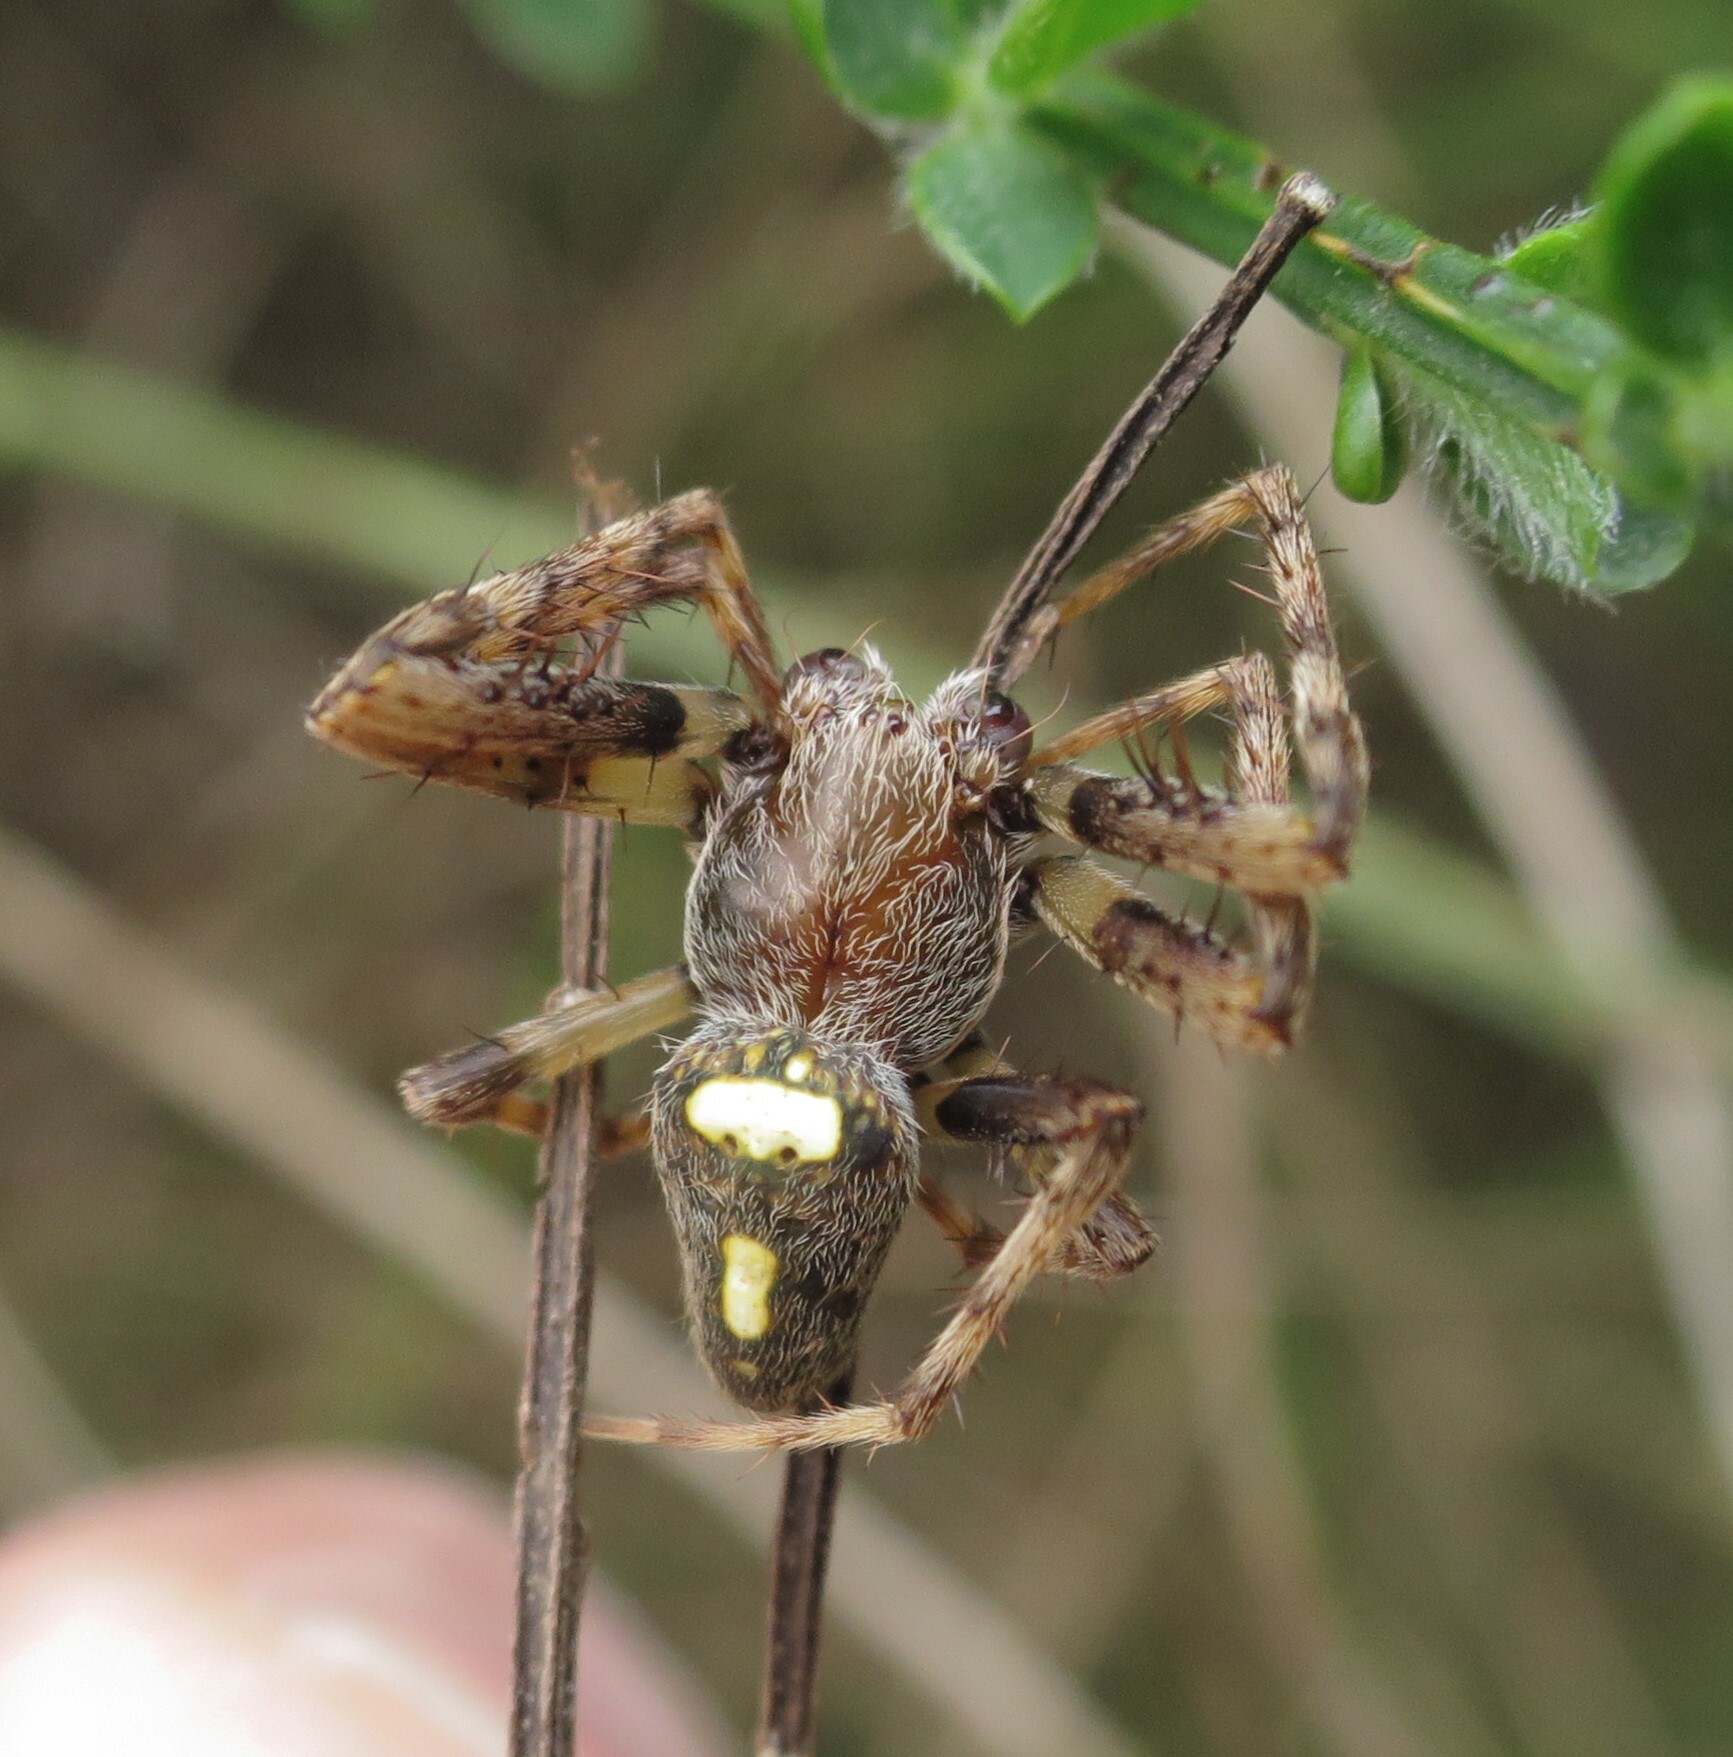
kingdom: Animalia
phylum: Arthropoda
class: Arachnida
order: Araneae
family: Araneidae
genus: Zealaranea
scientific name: Zealaranea trinotata
